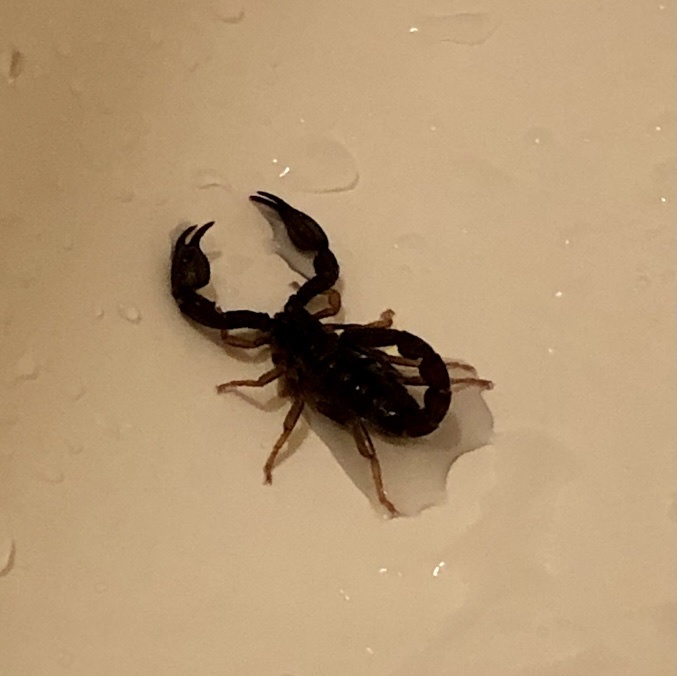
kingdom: Animalia
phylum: Arthropoda
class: Arachnida
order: Scorpiones
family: Chactidae
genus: Uroctonus
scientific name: Uroctonus mordax
